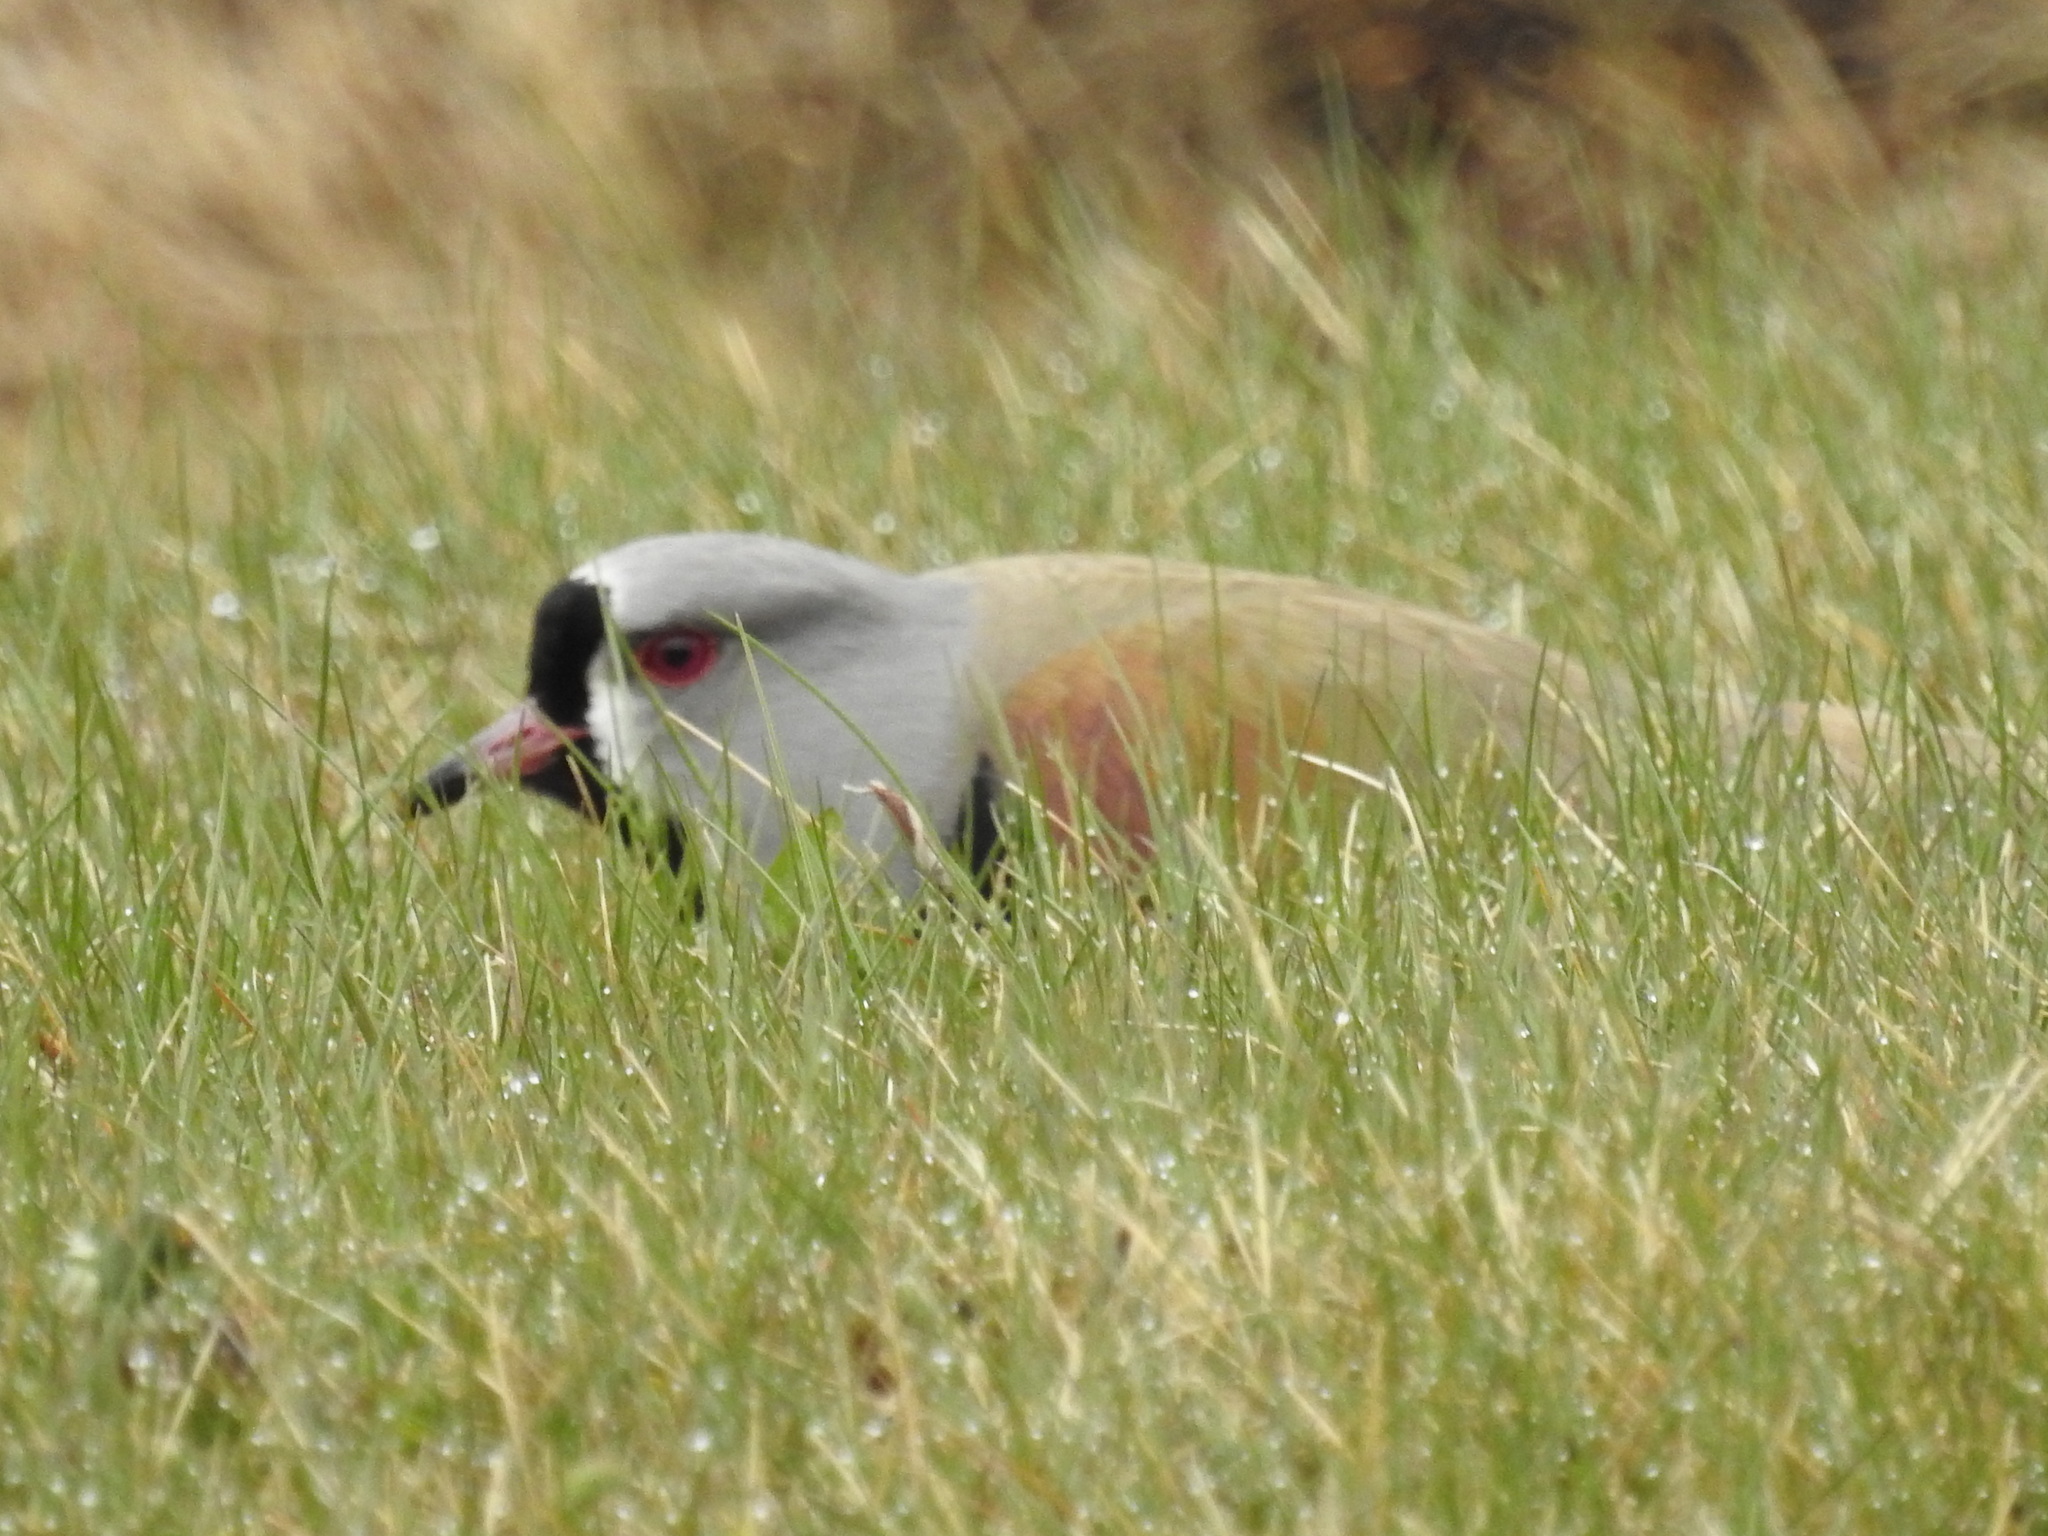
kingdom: Animalia
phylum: Chordata
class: Aves
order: Charadriiformes
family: Charadriidae
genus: Vanellus
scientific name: Vanellus chilensis
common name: Southern lapwing
